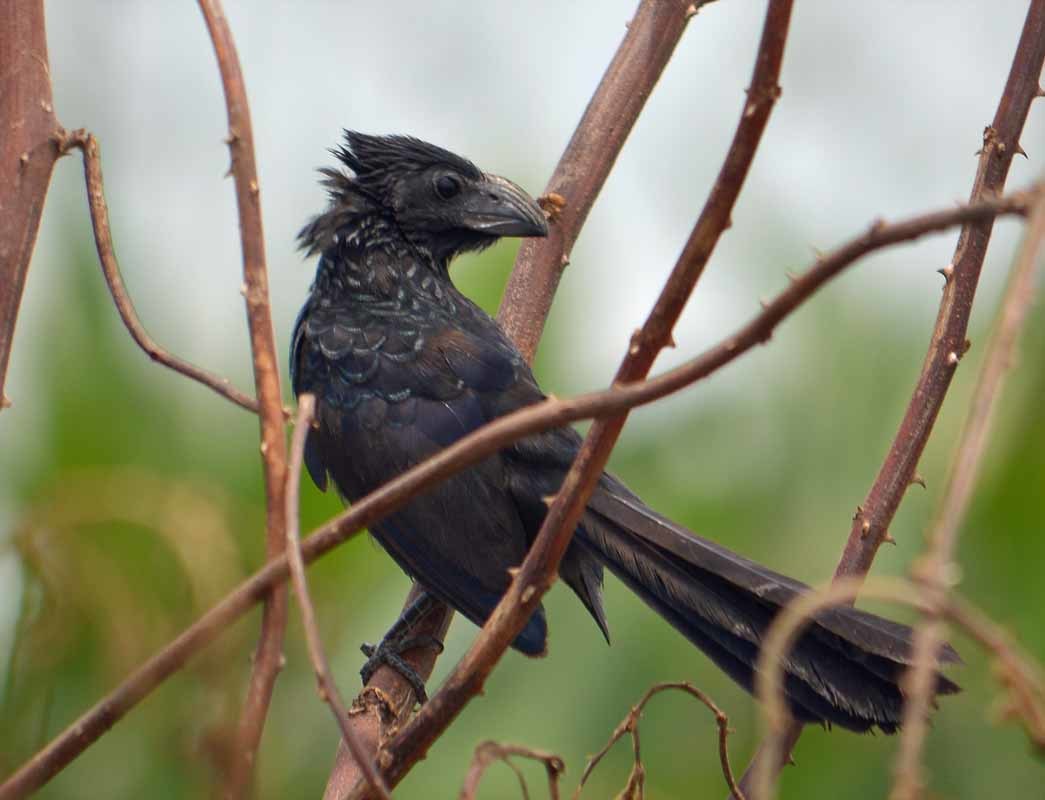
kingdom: Animalia
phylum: Chordata
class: Aves
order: Cuculiformes
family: Cuculidae
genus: Crotophaga
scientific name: Crotophaga sulcirostris
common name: Groove-billed ani
